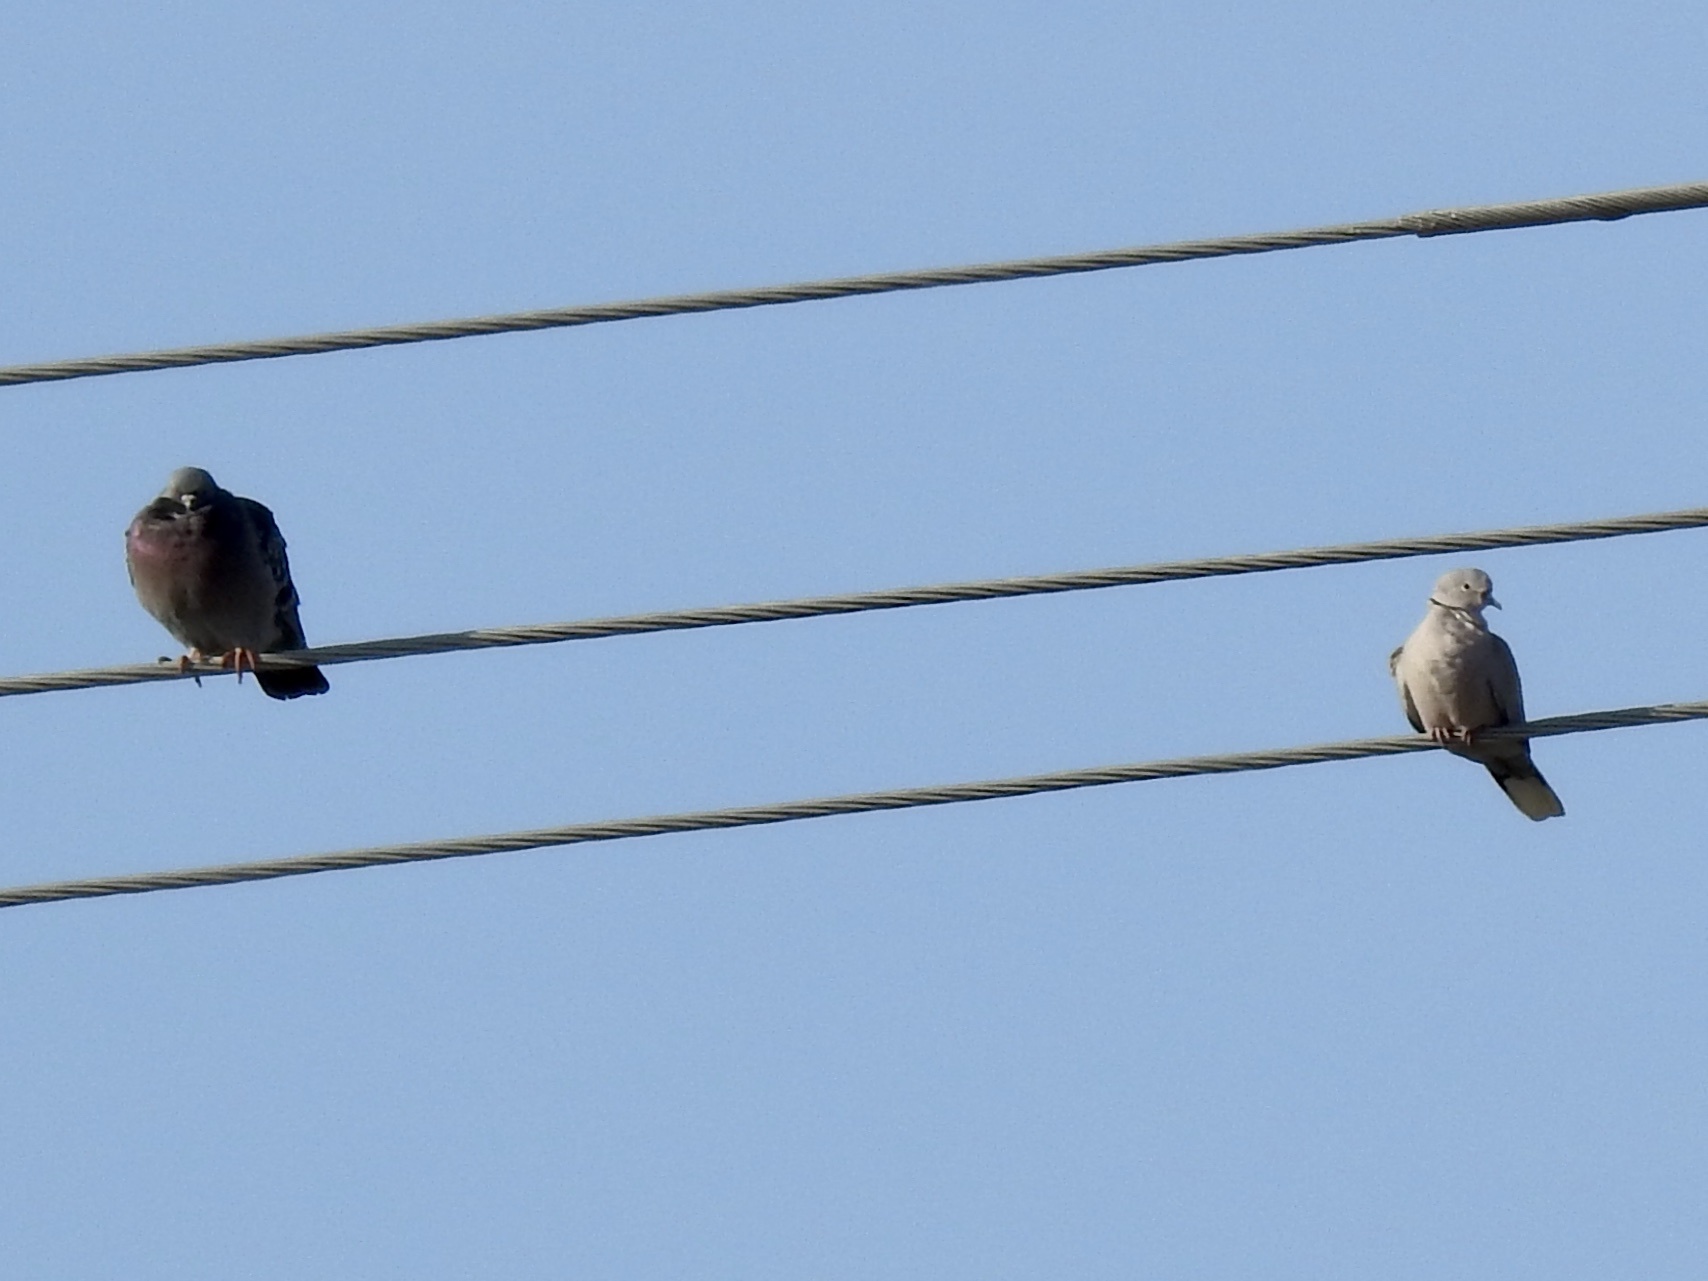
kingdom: Animalia
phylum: Chordata
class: Aves
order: Columbiformes
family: Columbidae
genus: Columba
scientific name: Columba livia
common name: Rock pigeon
